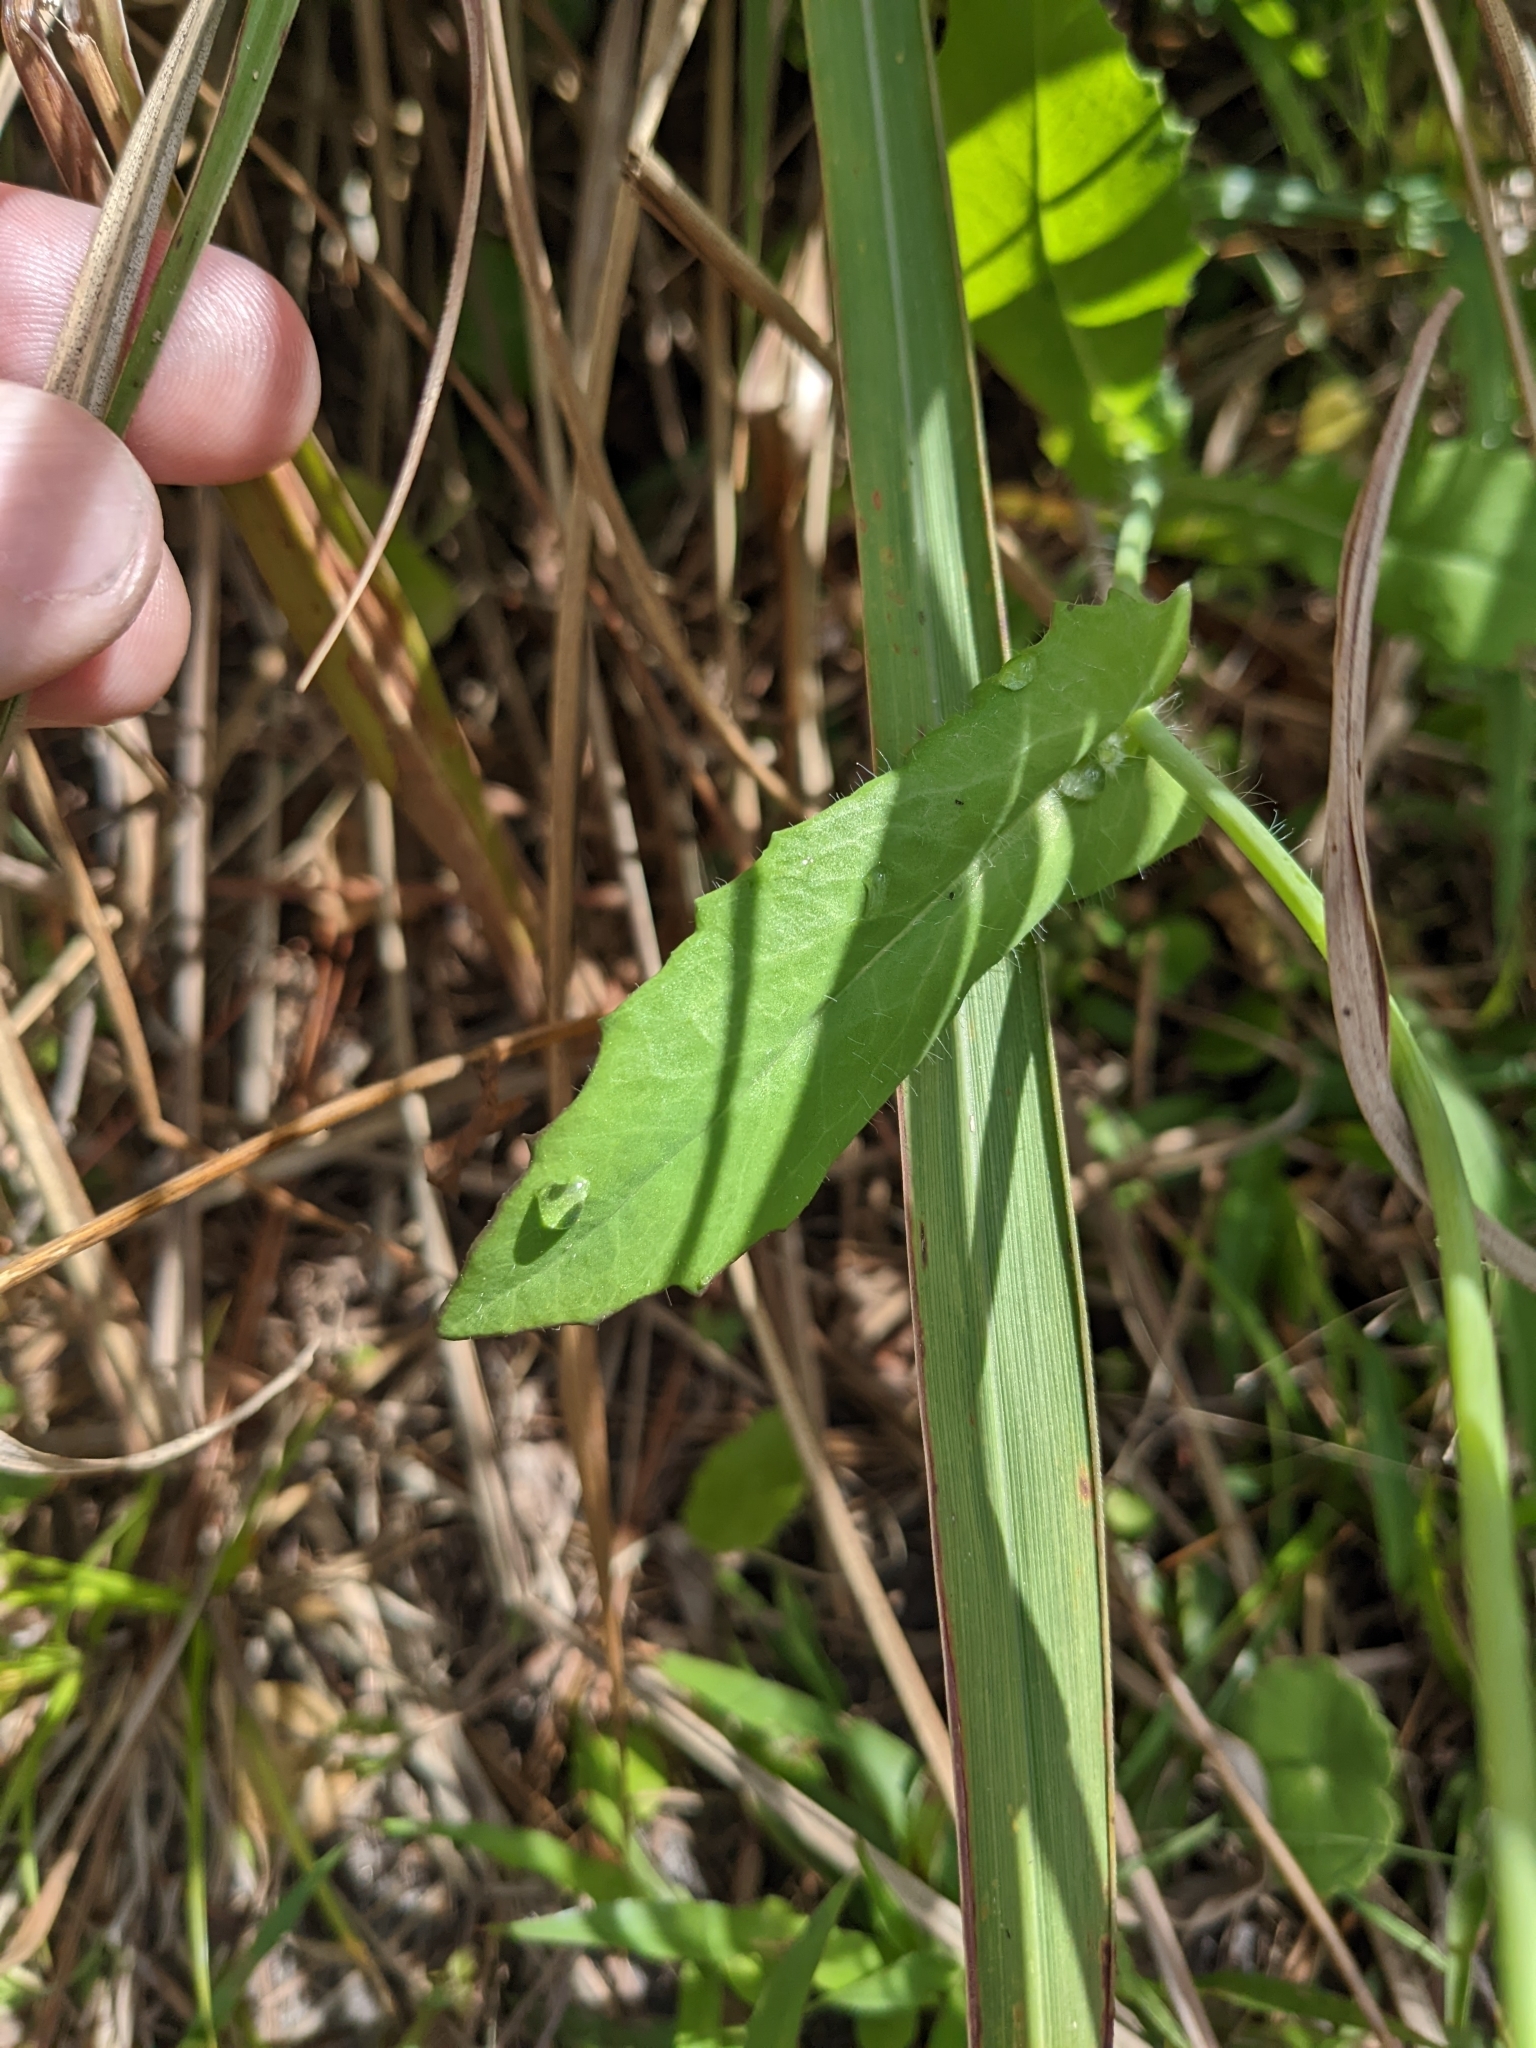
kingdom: Plantae
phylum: Tracheophyta
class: Magnoliopsida
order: Asterales
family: Asteraceae
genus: Emilia
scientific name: Emilia fosbergii
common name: Florida tasselflower
